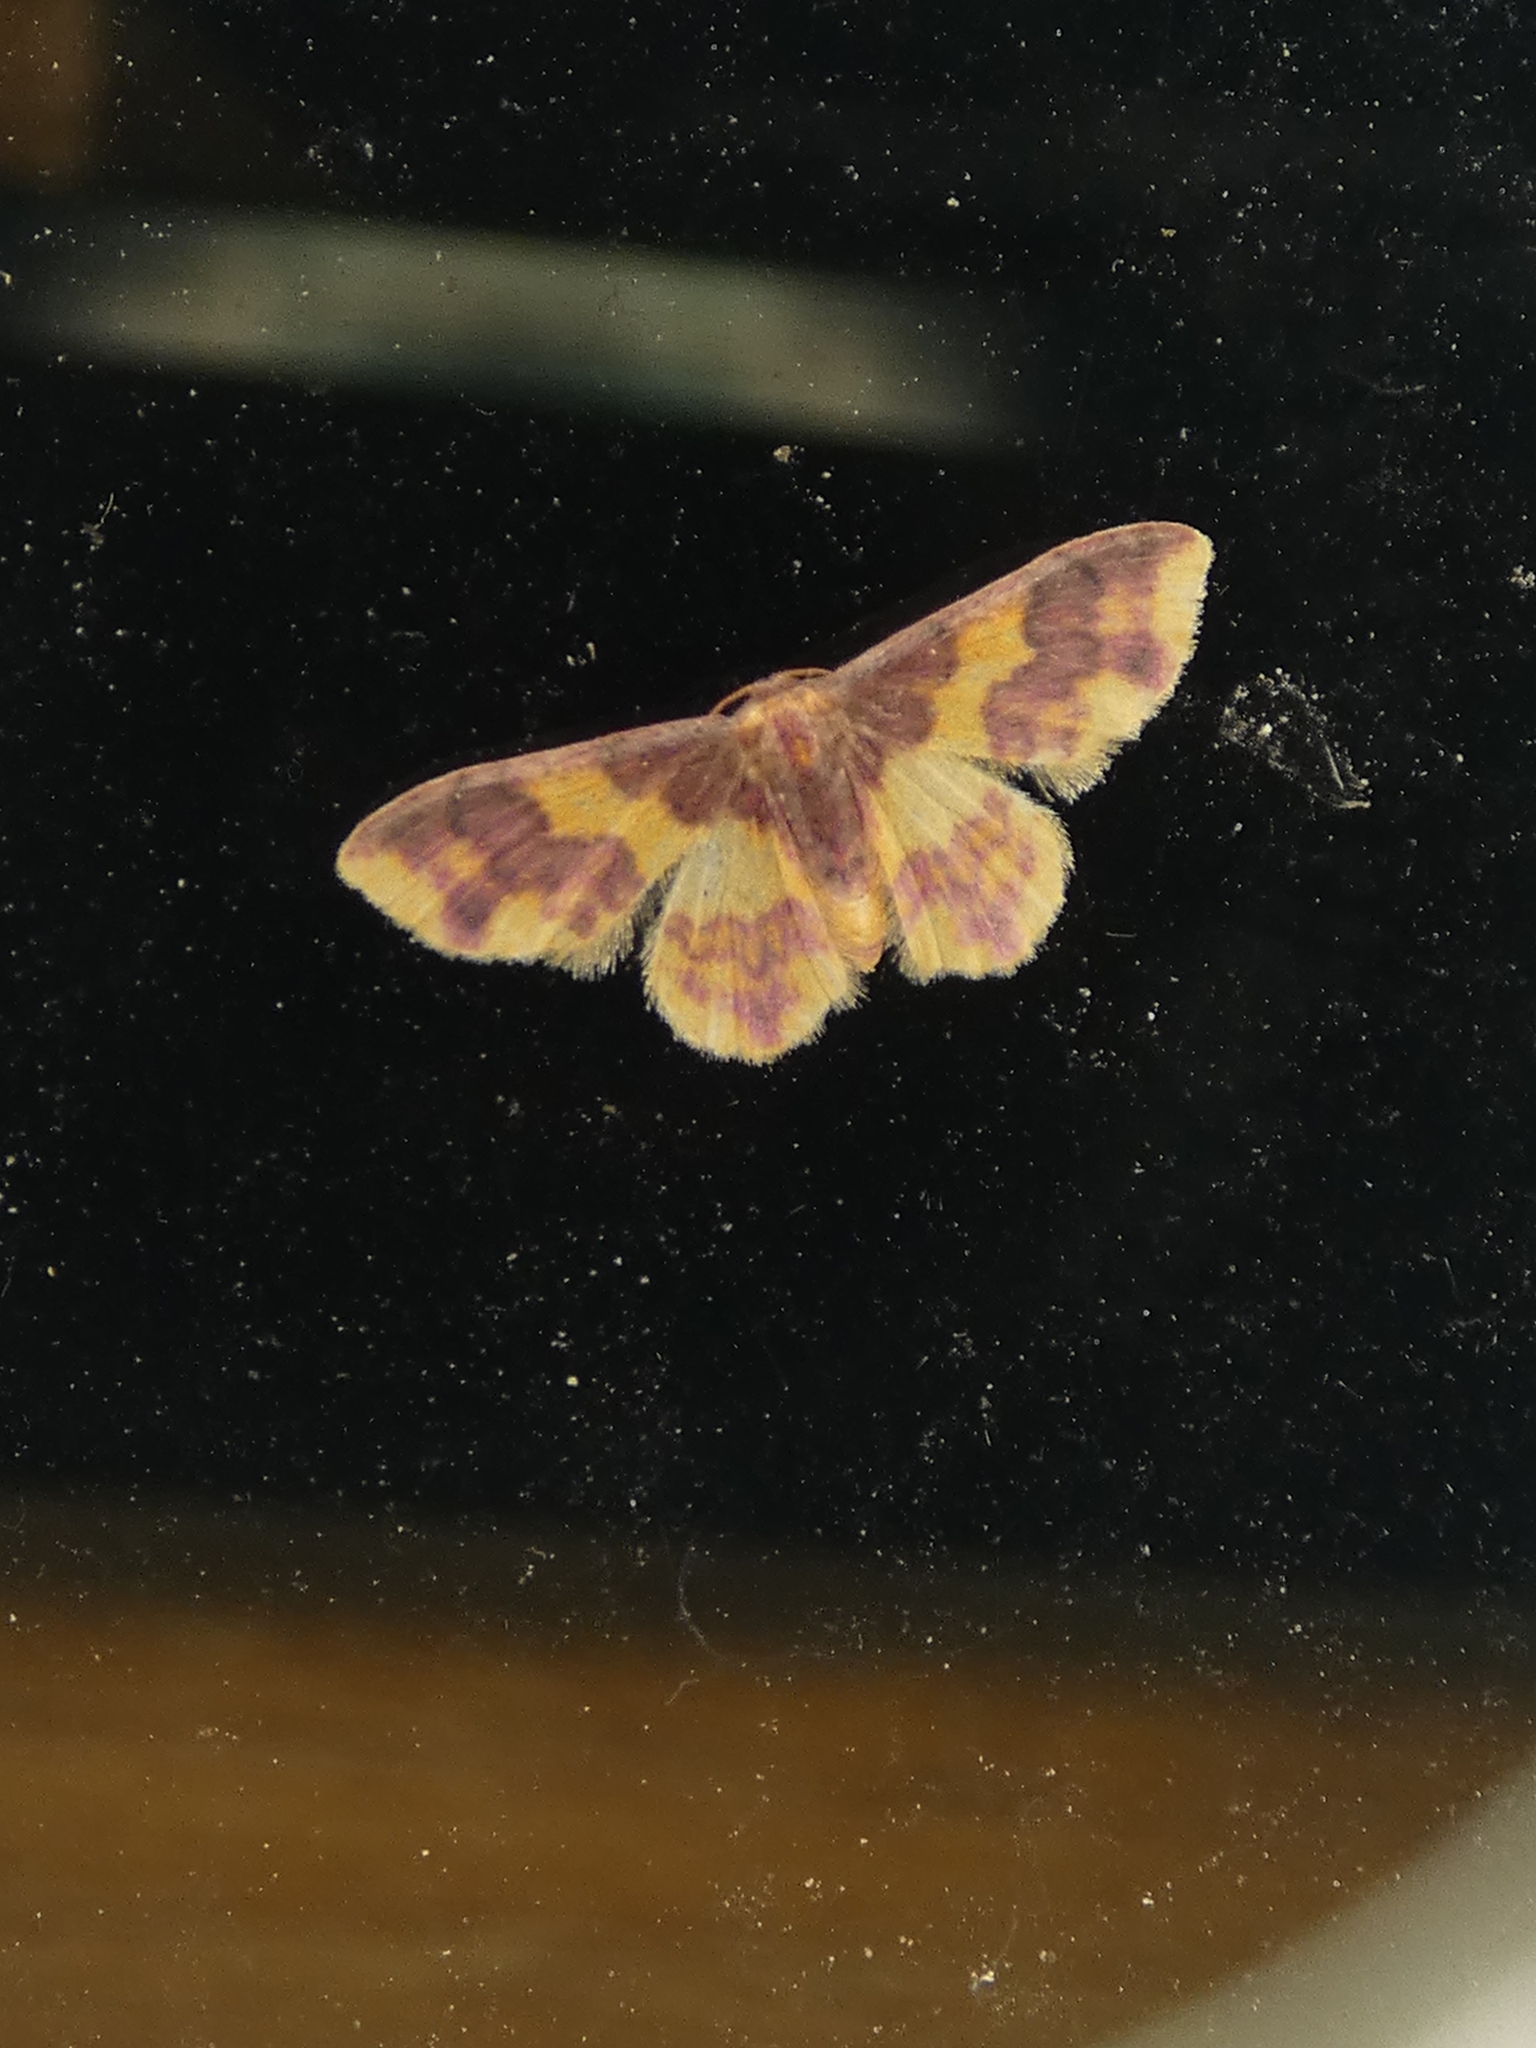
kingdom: Animalia
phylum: Arthropoda
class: Insecta
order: Lepidoptera
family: Geometridae
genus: Lophosis
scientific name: Lophosis labeculata
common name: Stained lophosis moth
